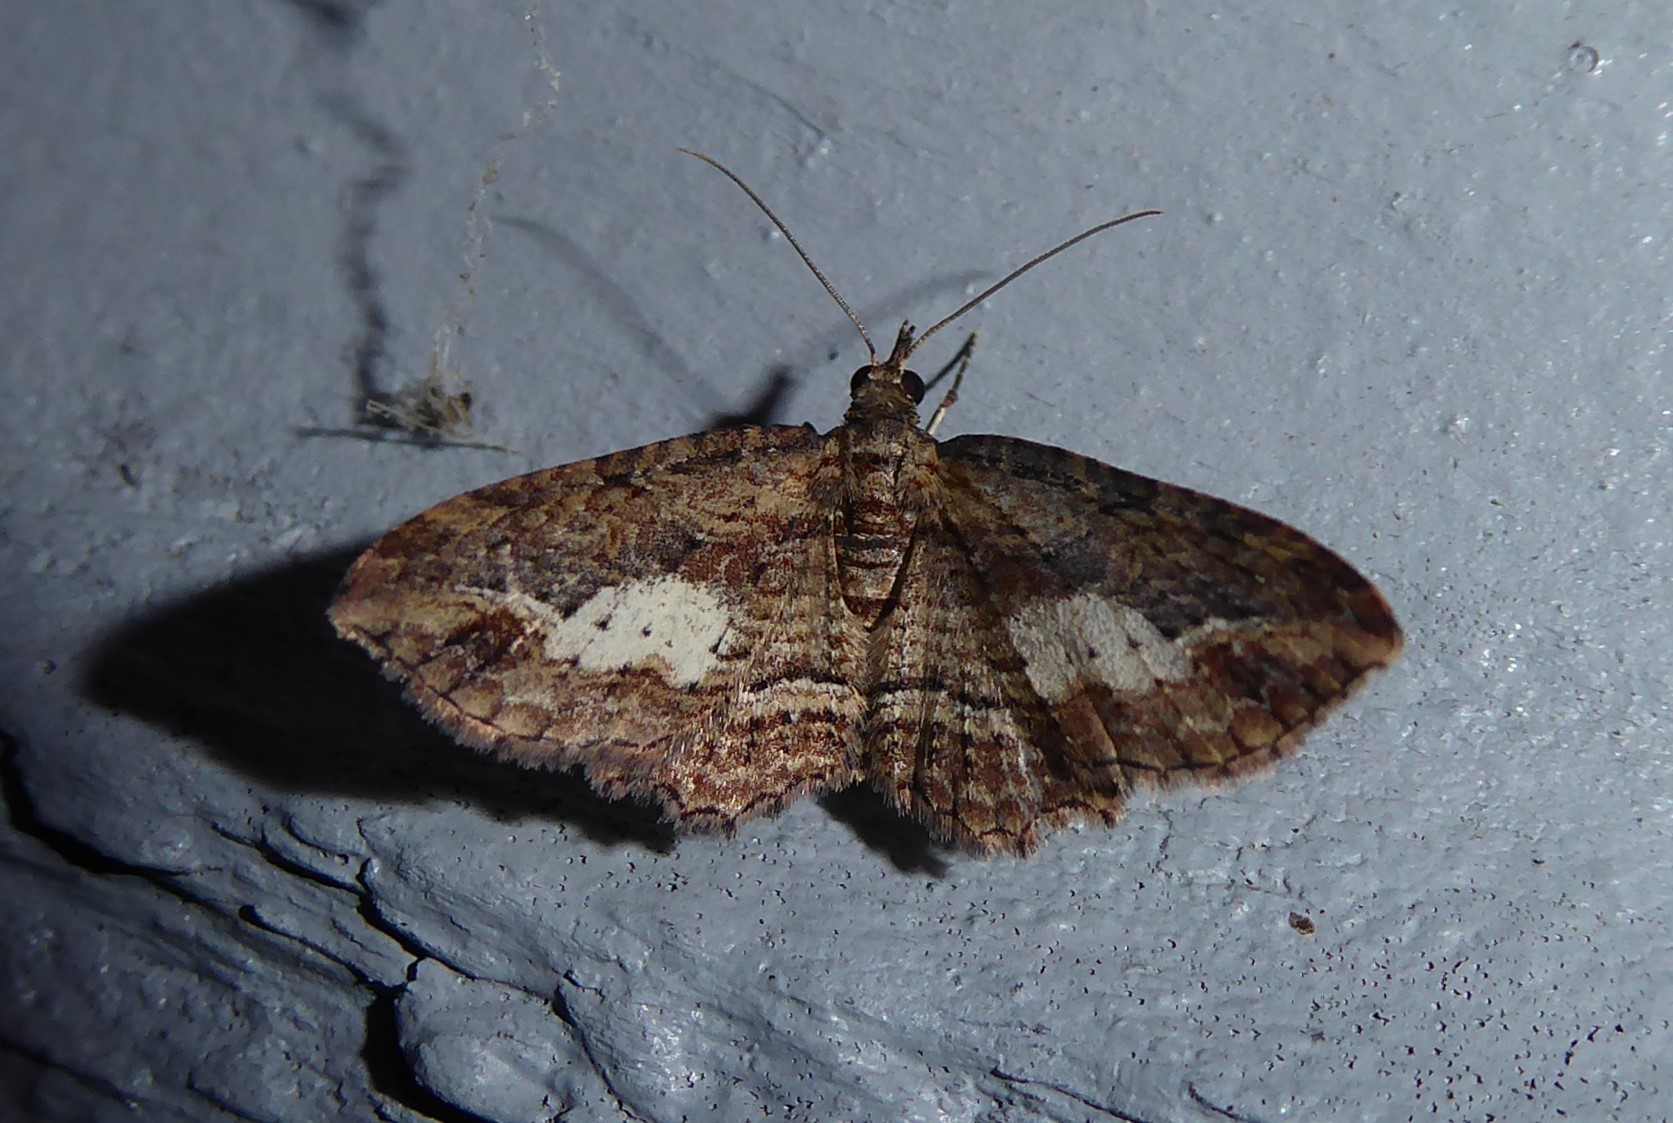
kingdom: Animalia
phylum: Arthropoda
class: Insecta
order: Lepidoptera
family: Geometridae
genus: Chloroclystis
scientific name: Chloroclystis filata
